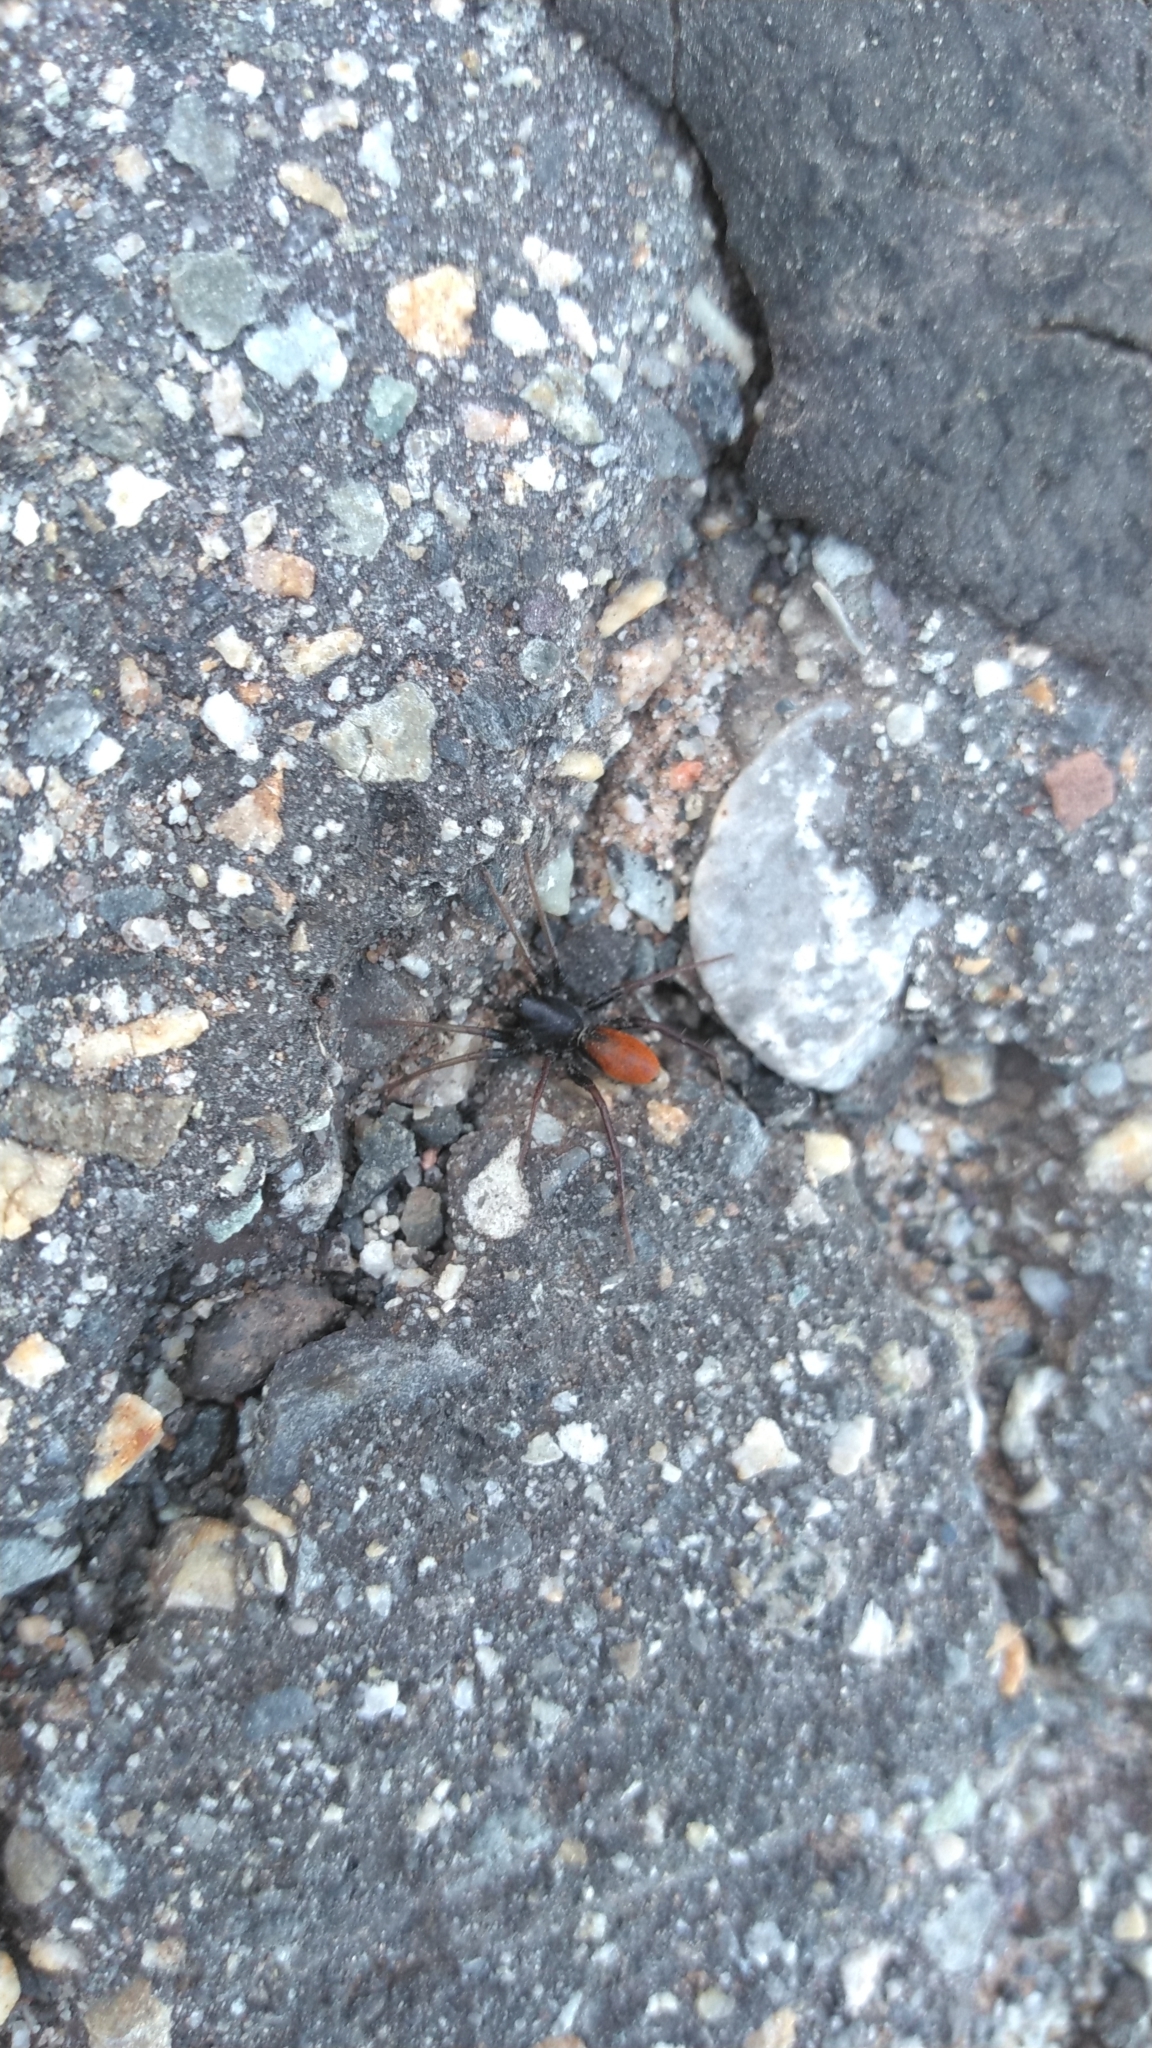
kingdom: Animalia
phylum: Arthropoda
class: Arachnida
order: Araneae
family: Corinnidae
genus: Castianeira
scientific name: Castianeira occidens
